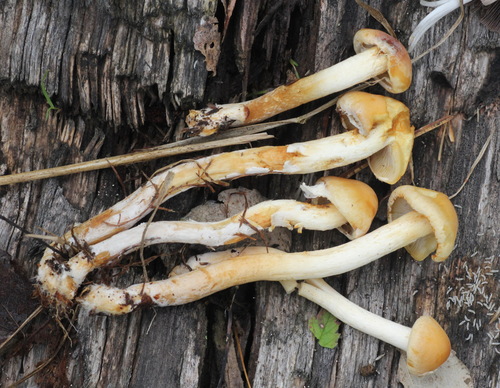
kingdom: Fungi
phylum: Basidiomycota
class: Agaricomycetes
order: Agaricales
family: Hymenogastraceae
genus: Hebeloma
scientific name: Hebeloma radicosum
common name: Rooting poisonpie
